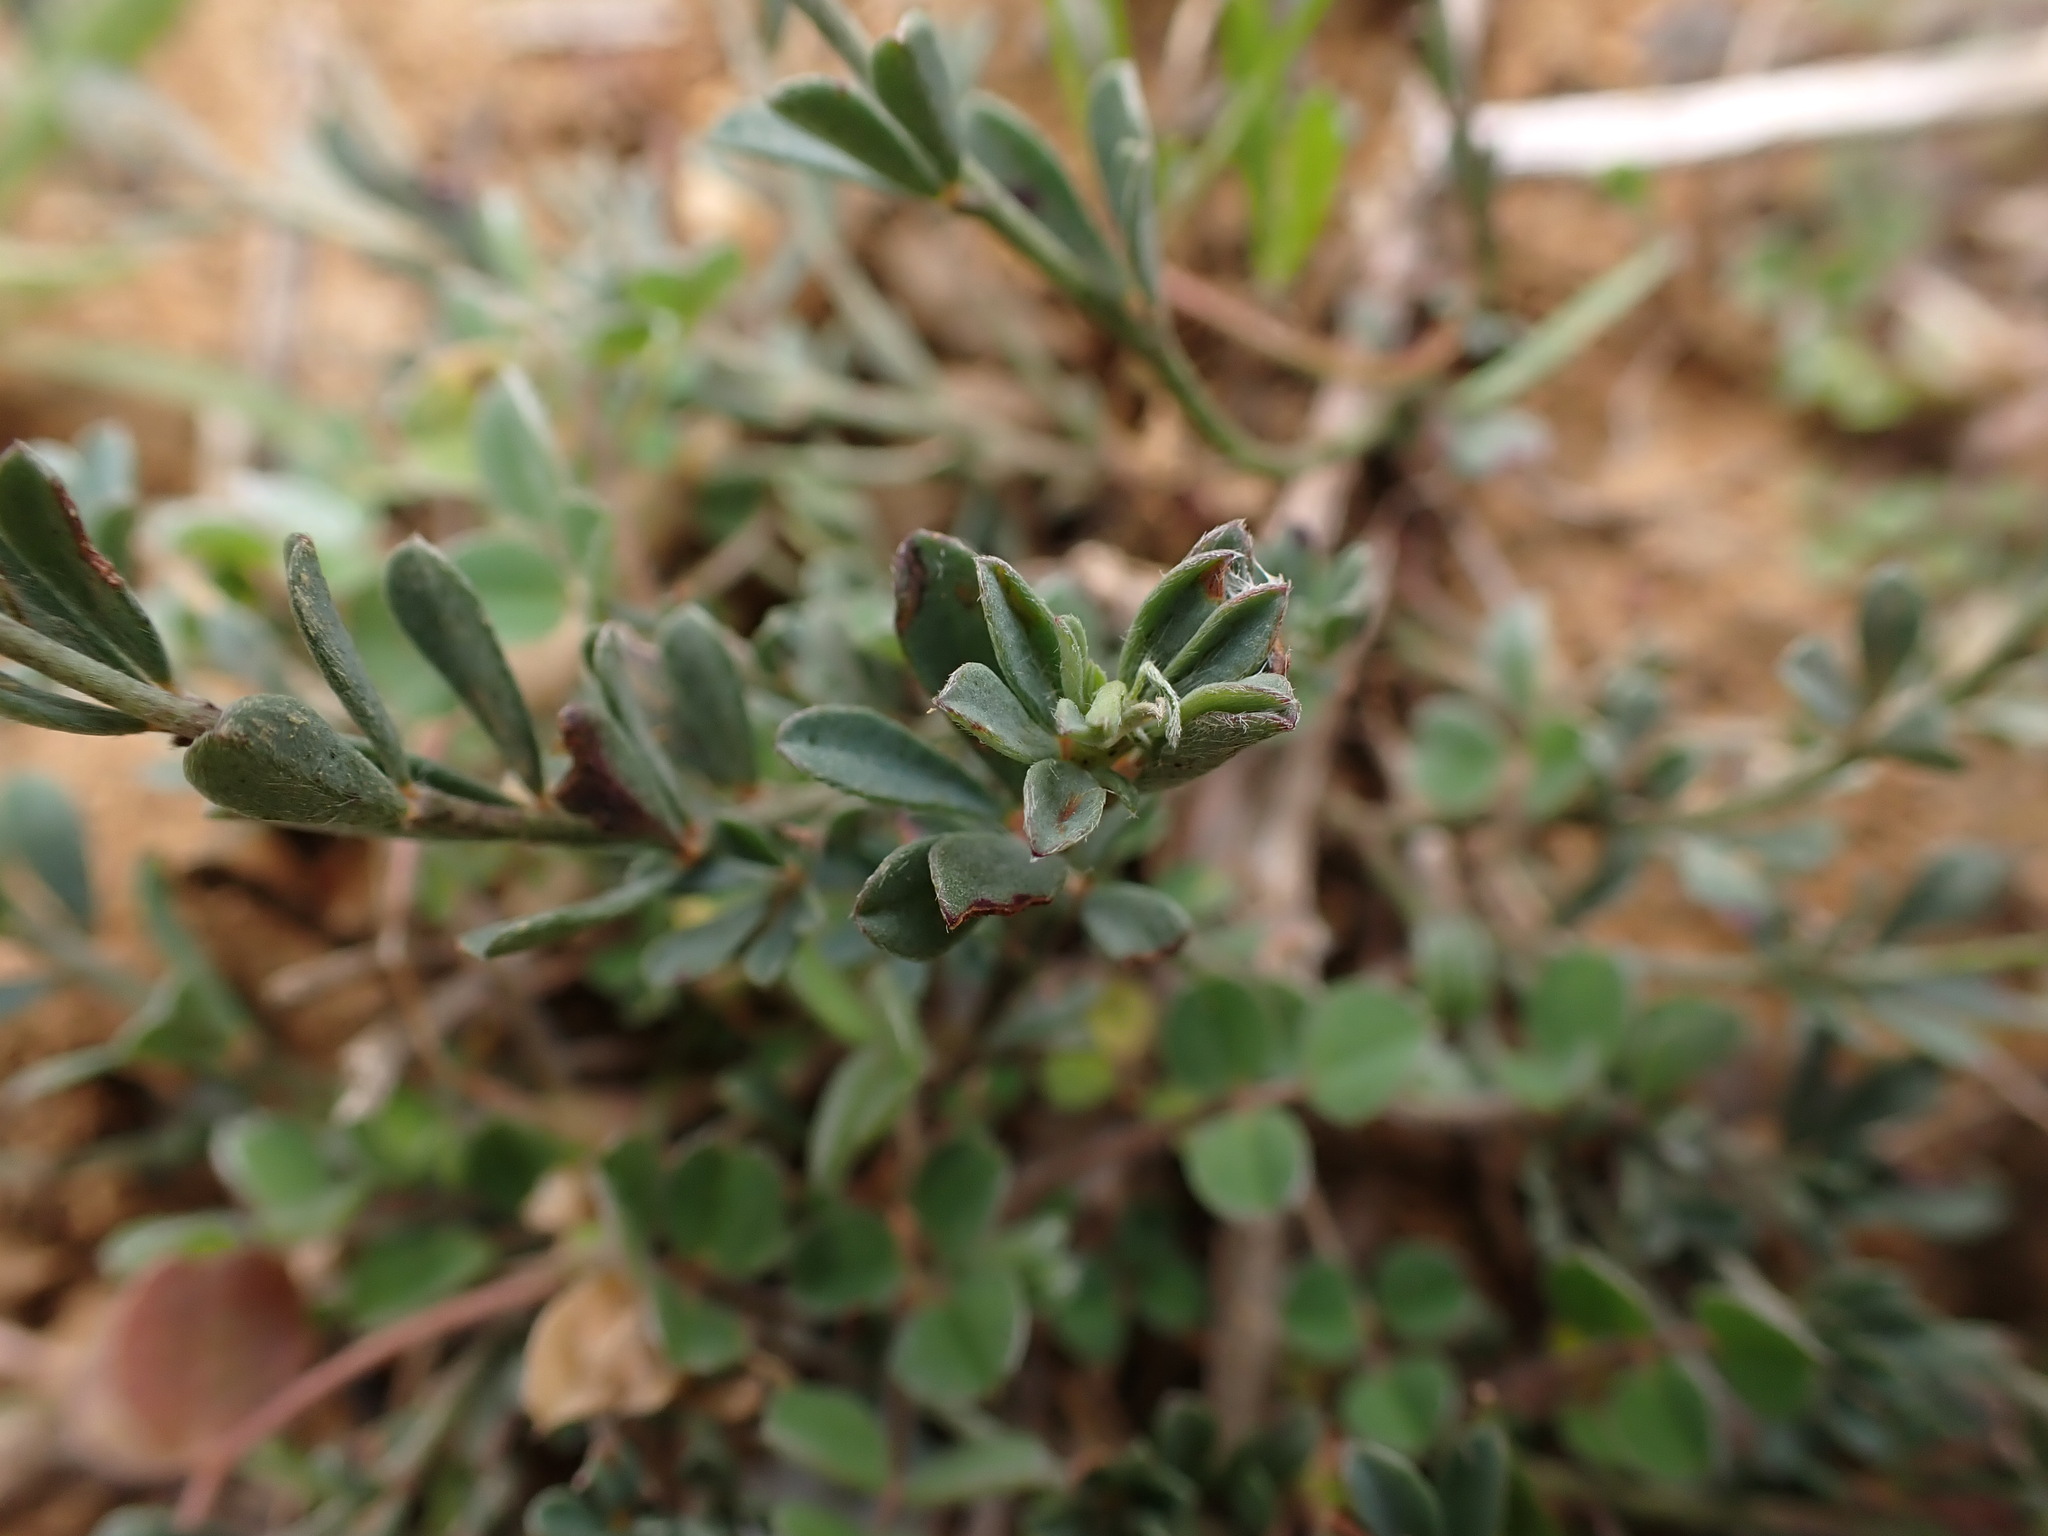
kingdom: Plantae
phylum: Tracheophyta
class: Magnoliopsida
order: Fabales
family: Fabaceae
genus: Lotus
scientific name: Lotus dorycnium
